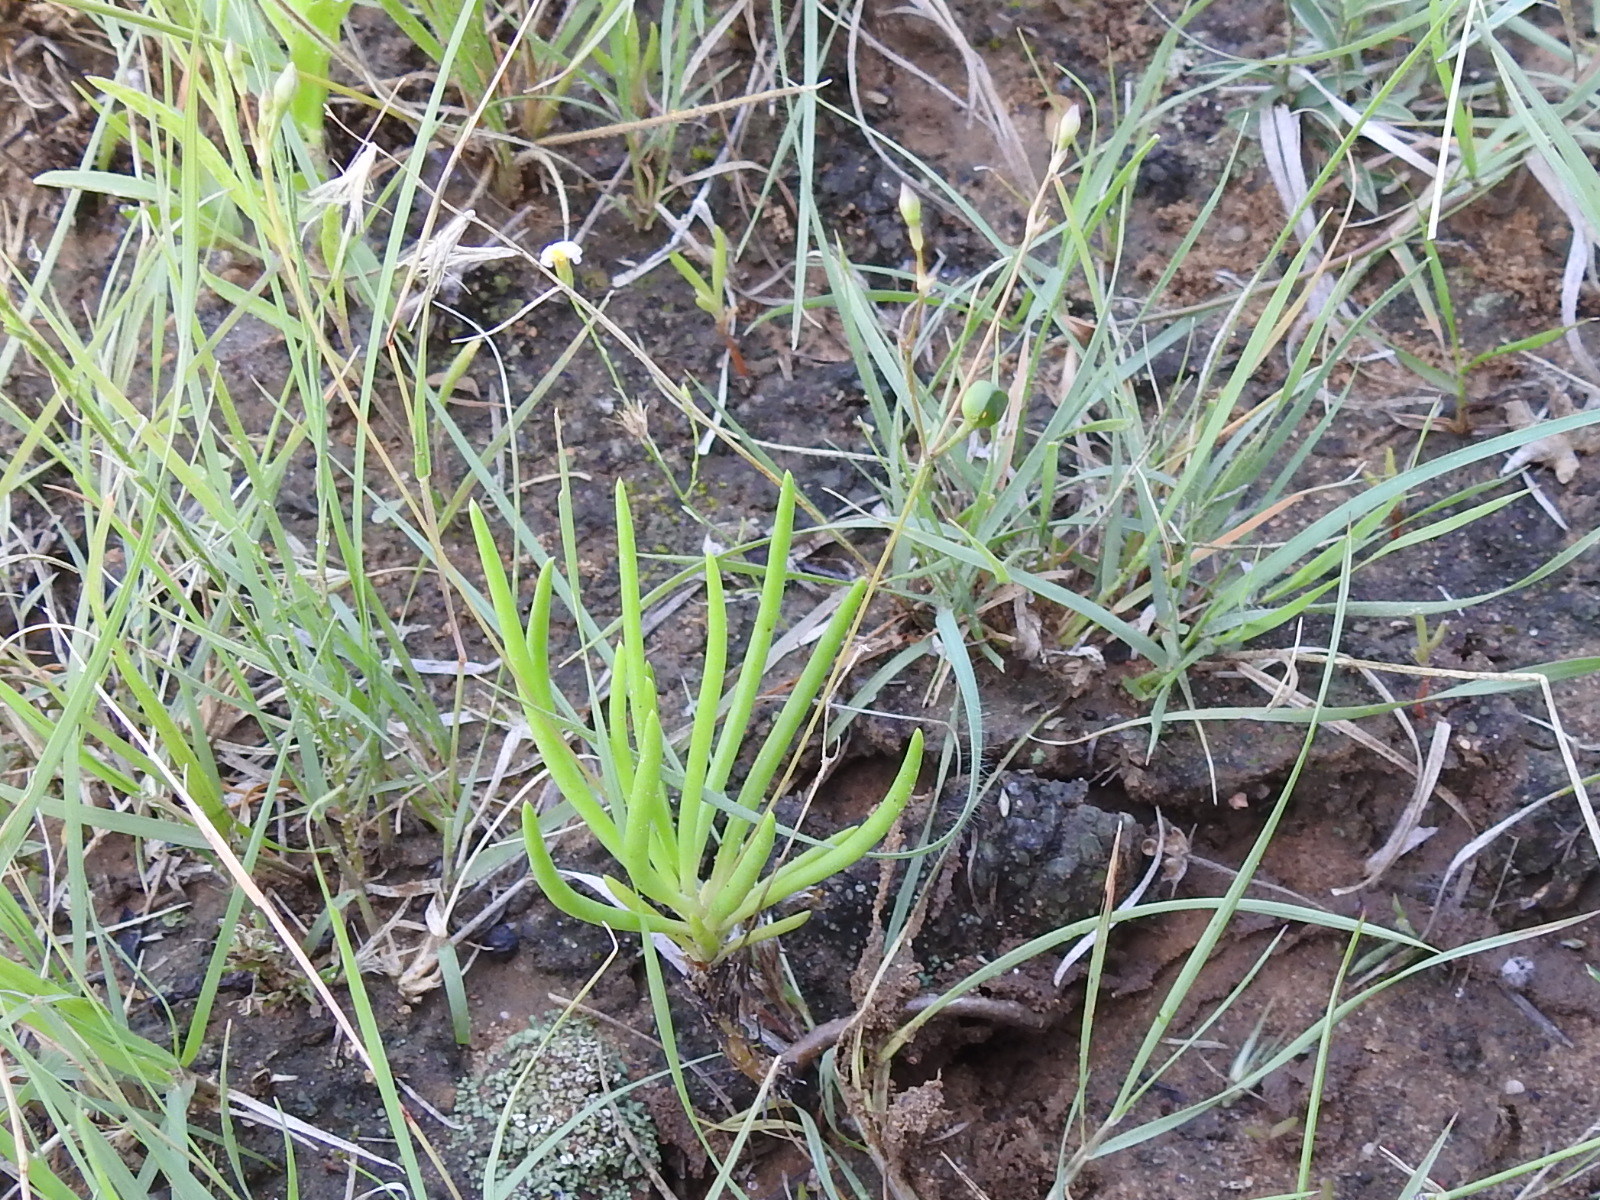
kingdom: Plantae
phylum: Tracheophyta
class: Magnoliopsida
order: Caryophyllales
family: Montiaceae
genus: Phemeranthus
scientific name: Phemeranthus parviflorus
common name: Sunbright
